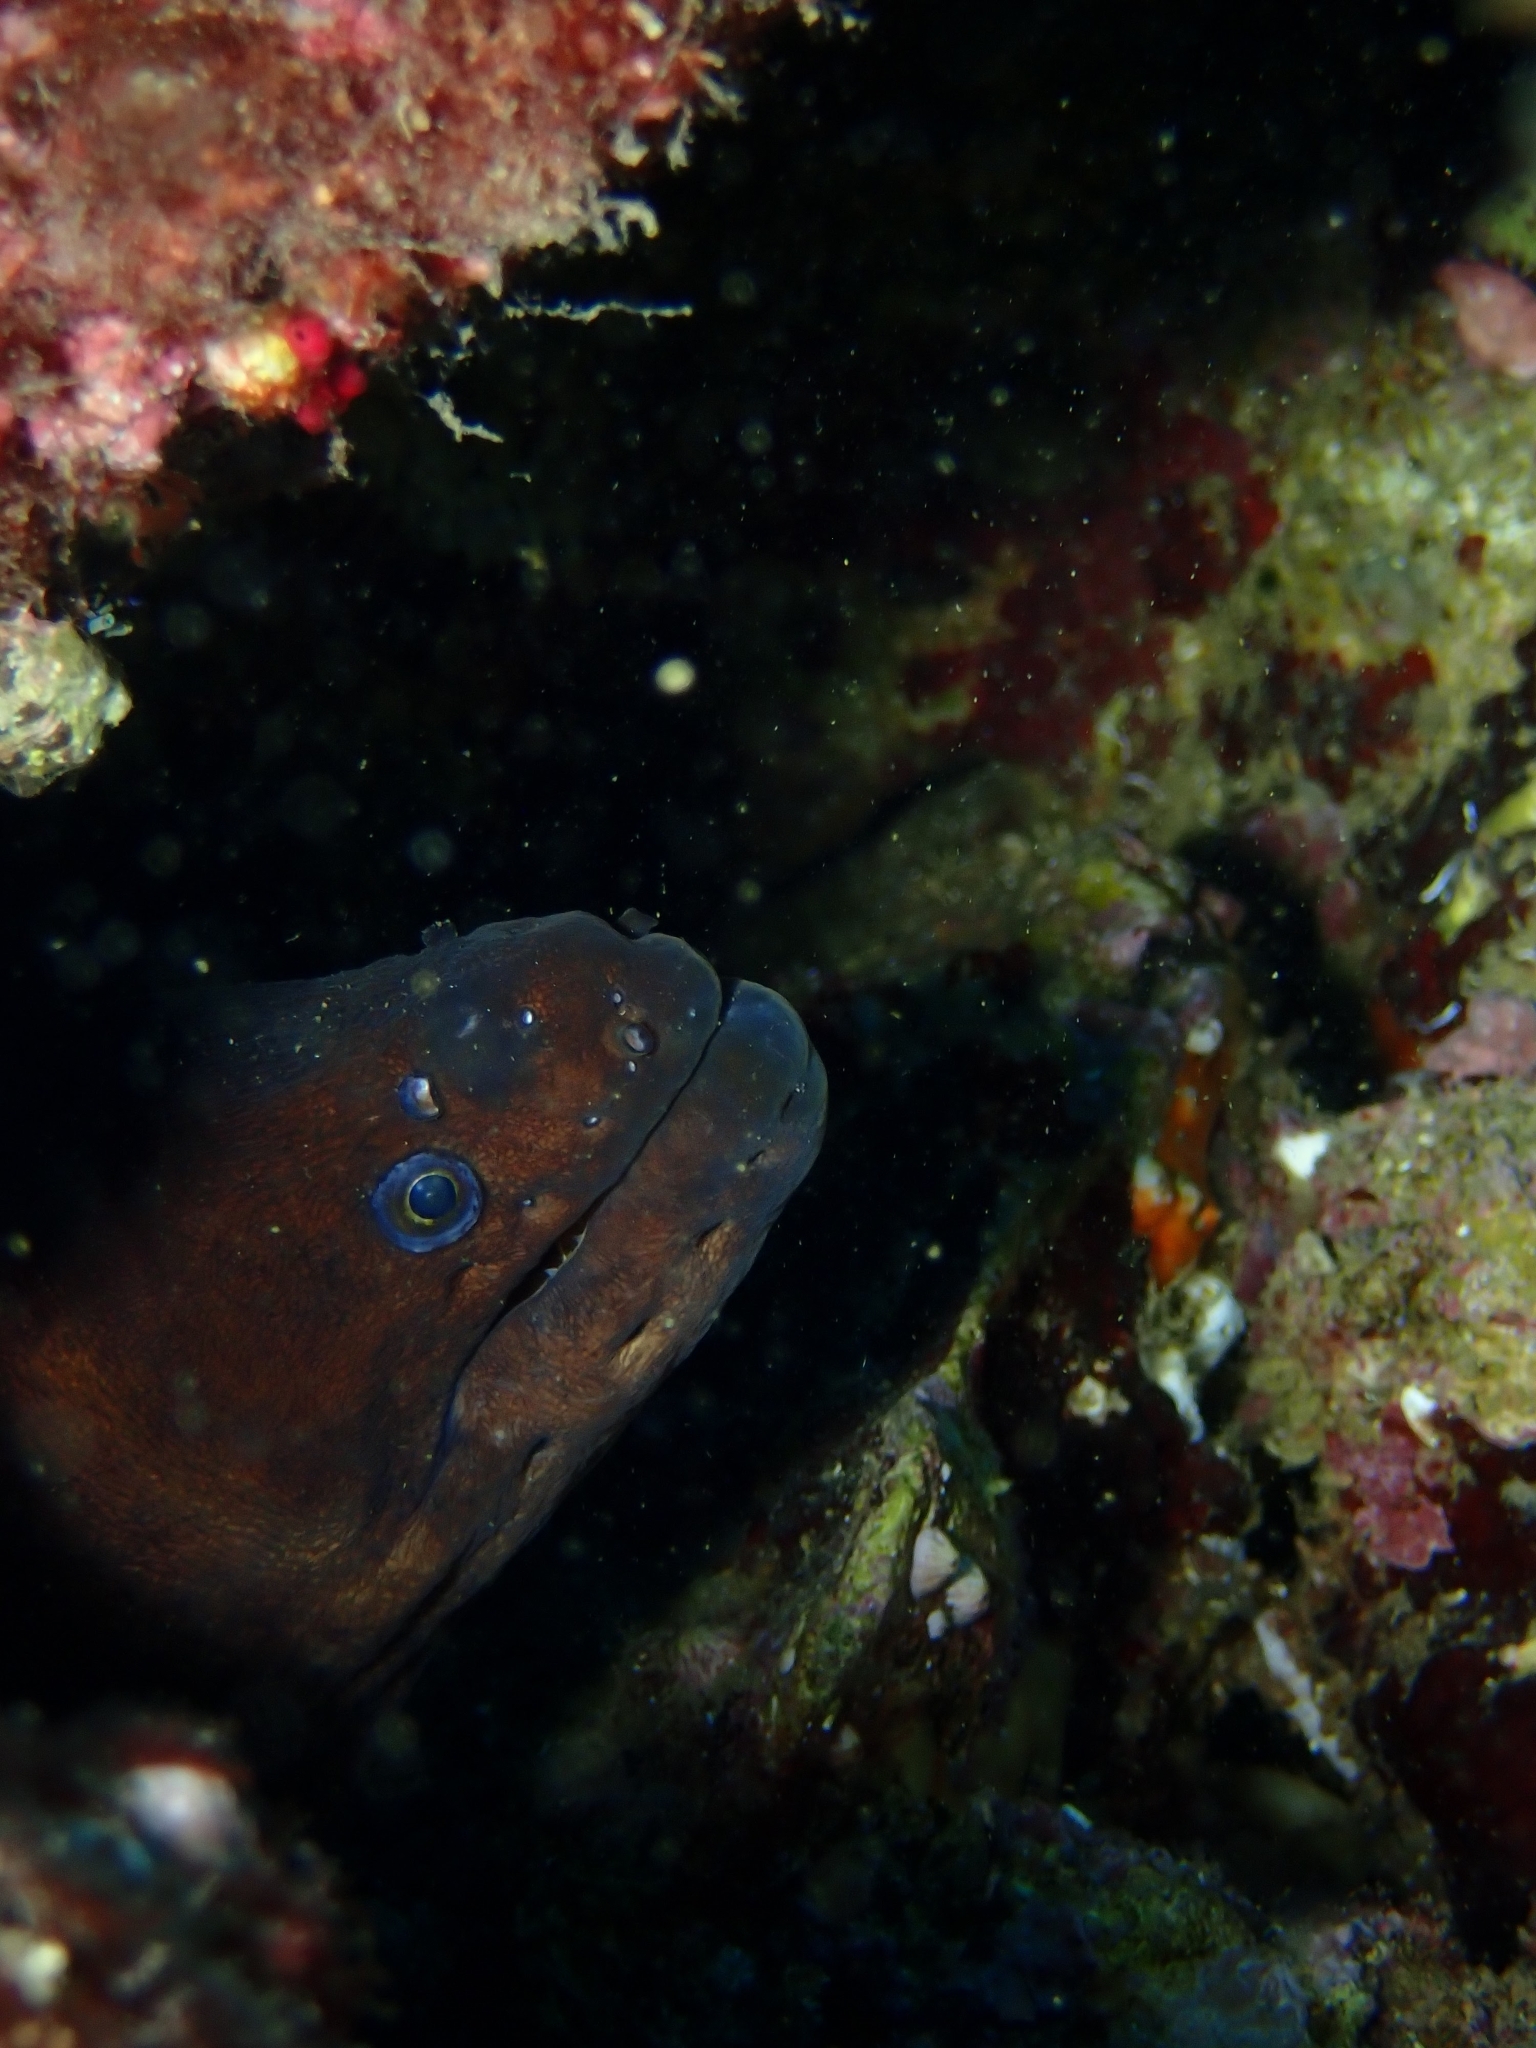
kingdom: Animalia
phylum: Chordata
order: Anguilliformes
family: Muraenidae
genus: Gymnothorax
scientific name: Gymnothorax unicolor
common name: Brown moray
